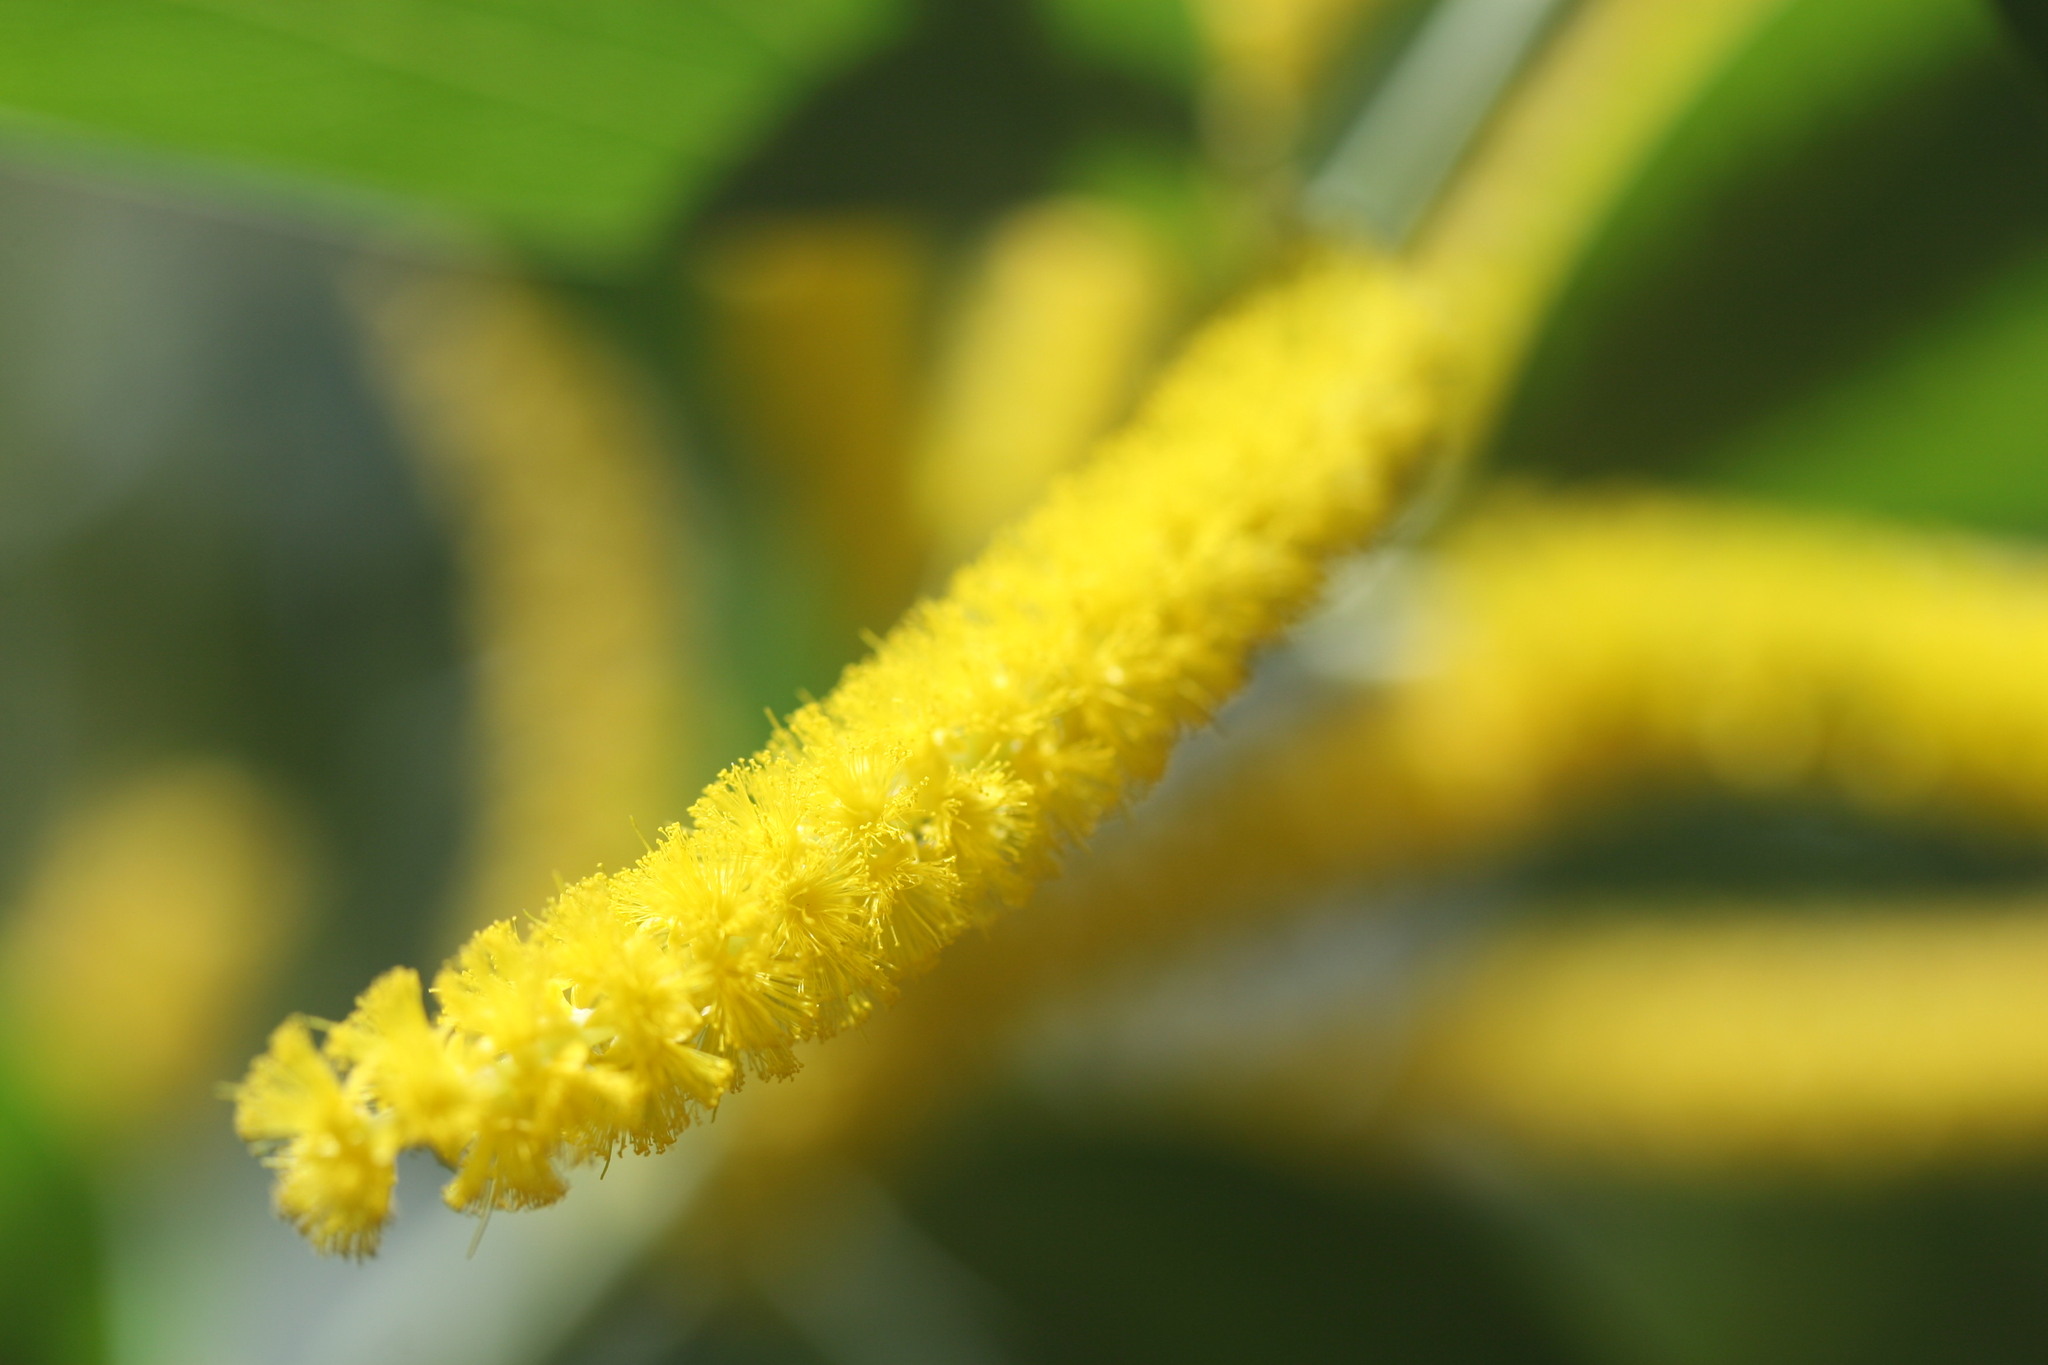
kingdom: Plantae
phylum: Tracheophyta
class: Magnoliopsida
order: Fabales
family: Fabaceae
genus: Acacia
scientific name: Acacia gardneri
